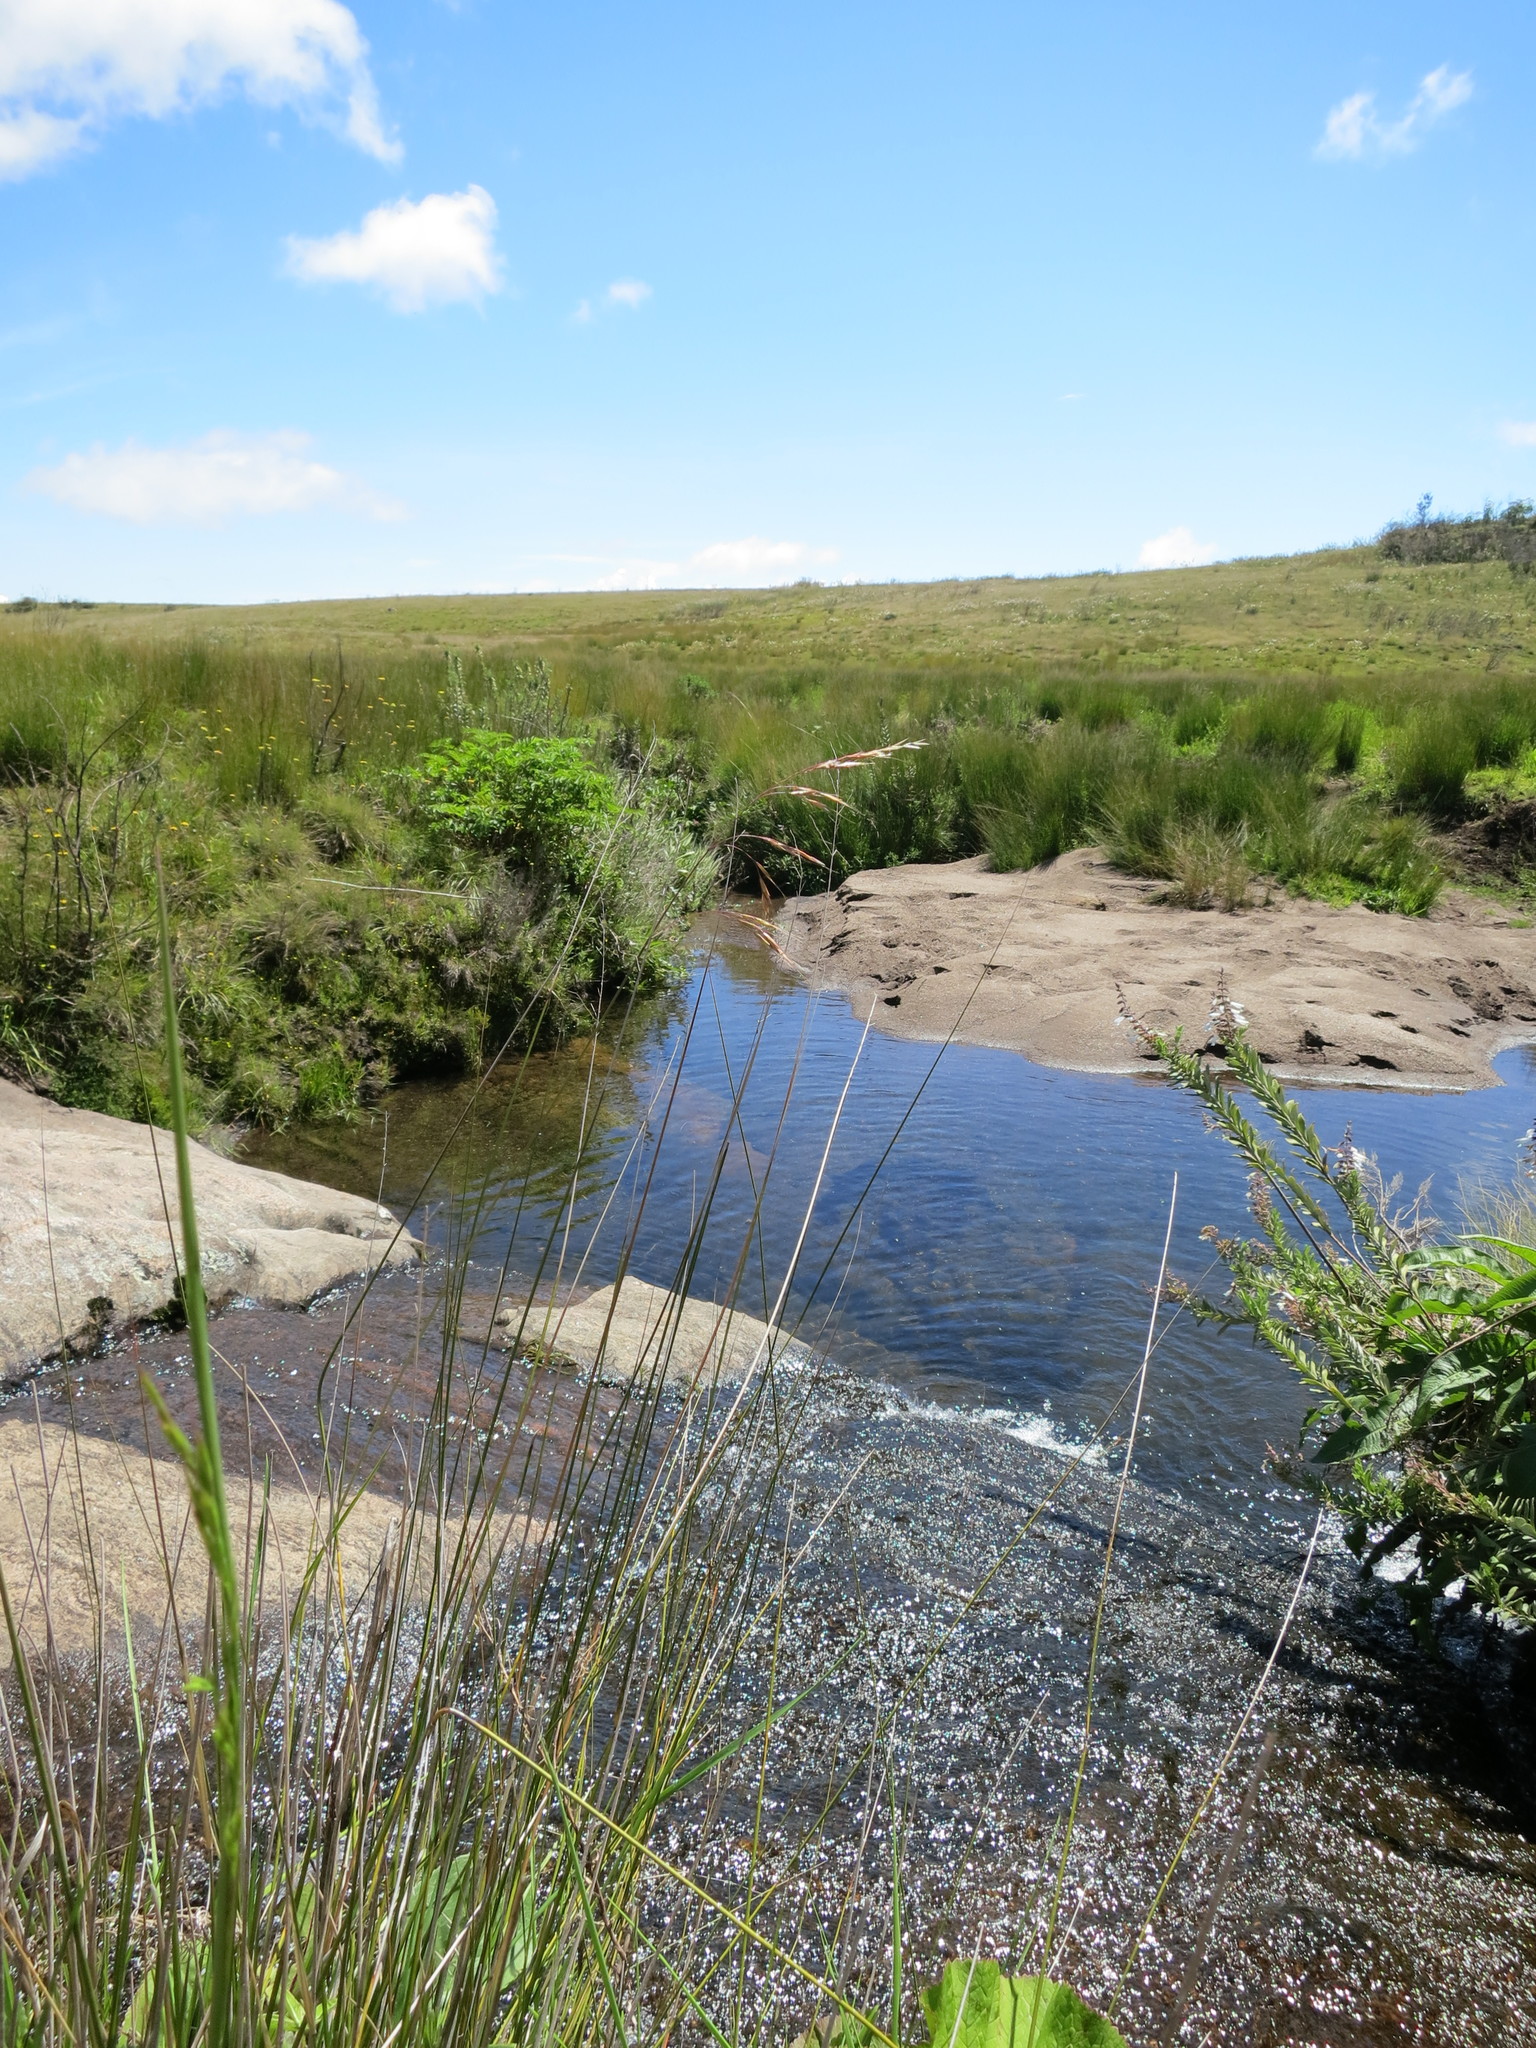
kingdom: Plantae
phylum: Tracheophyta
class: Liliopsida
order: Poales
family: Poaceae
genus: Trisetopsis
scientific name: Trisetopsis elongata
